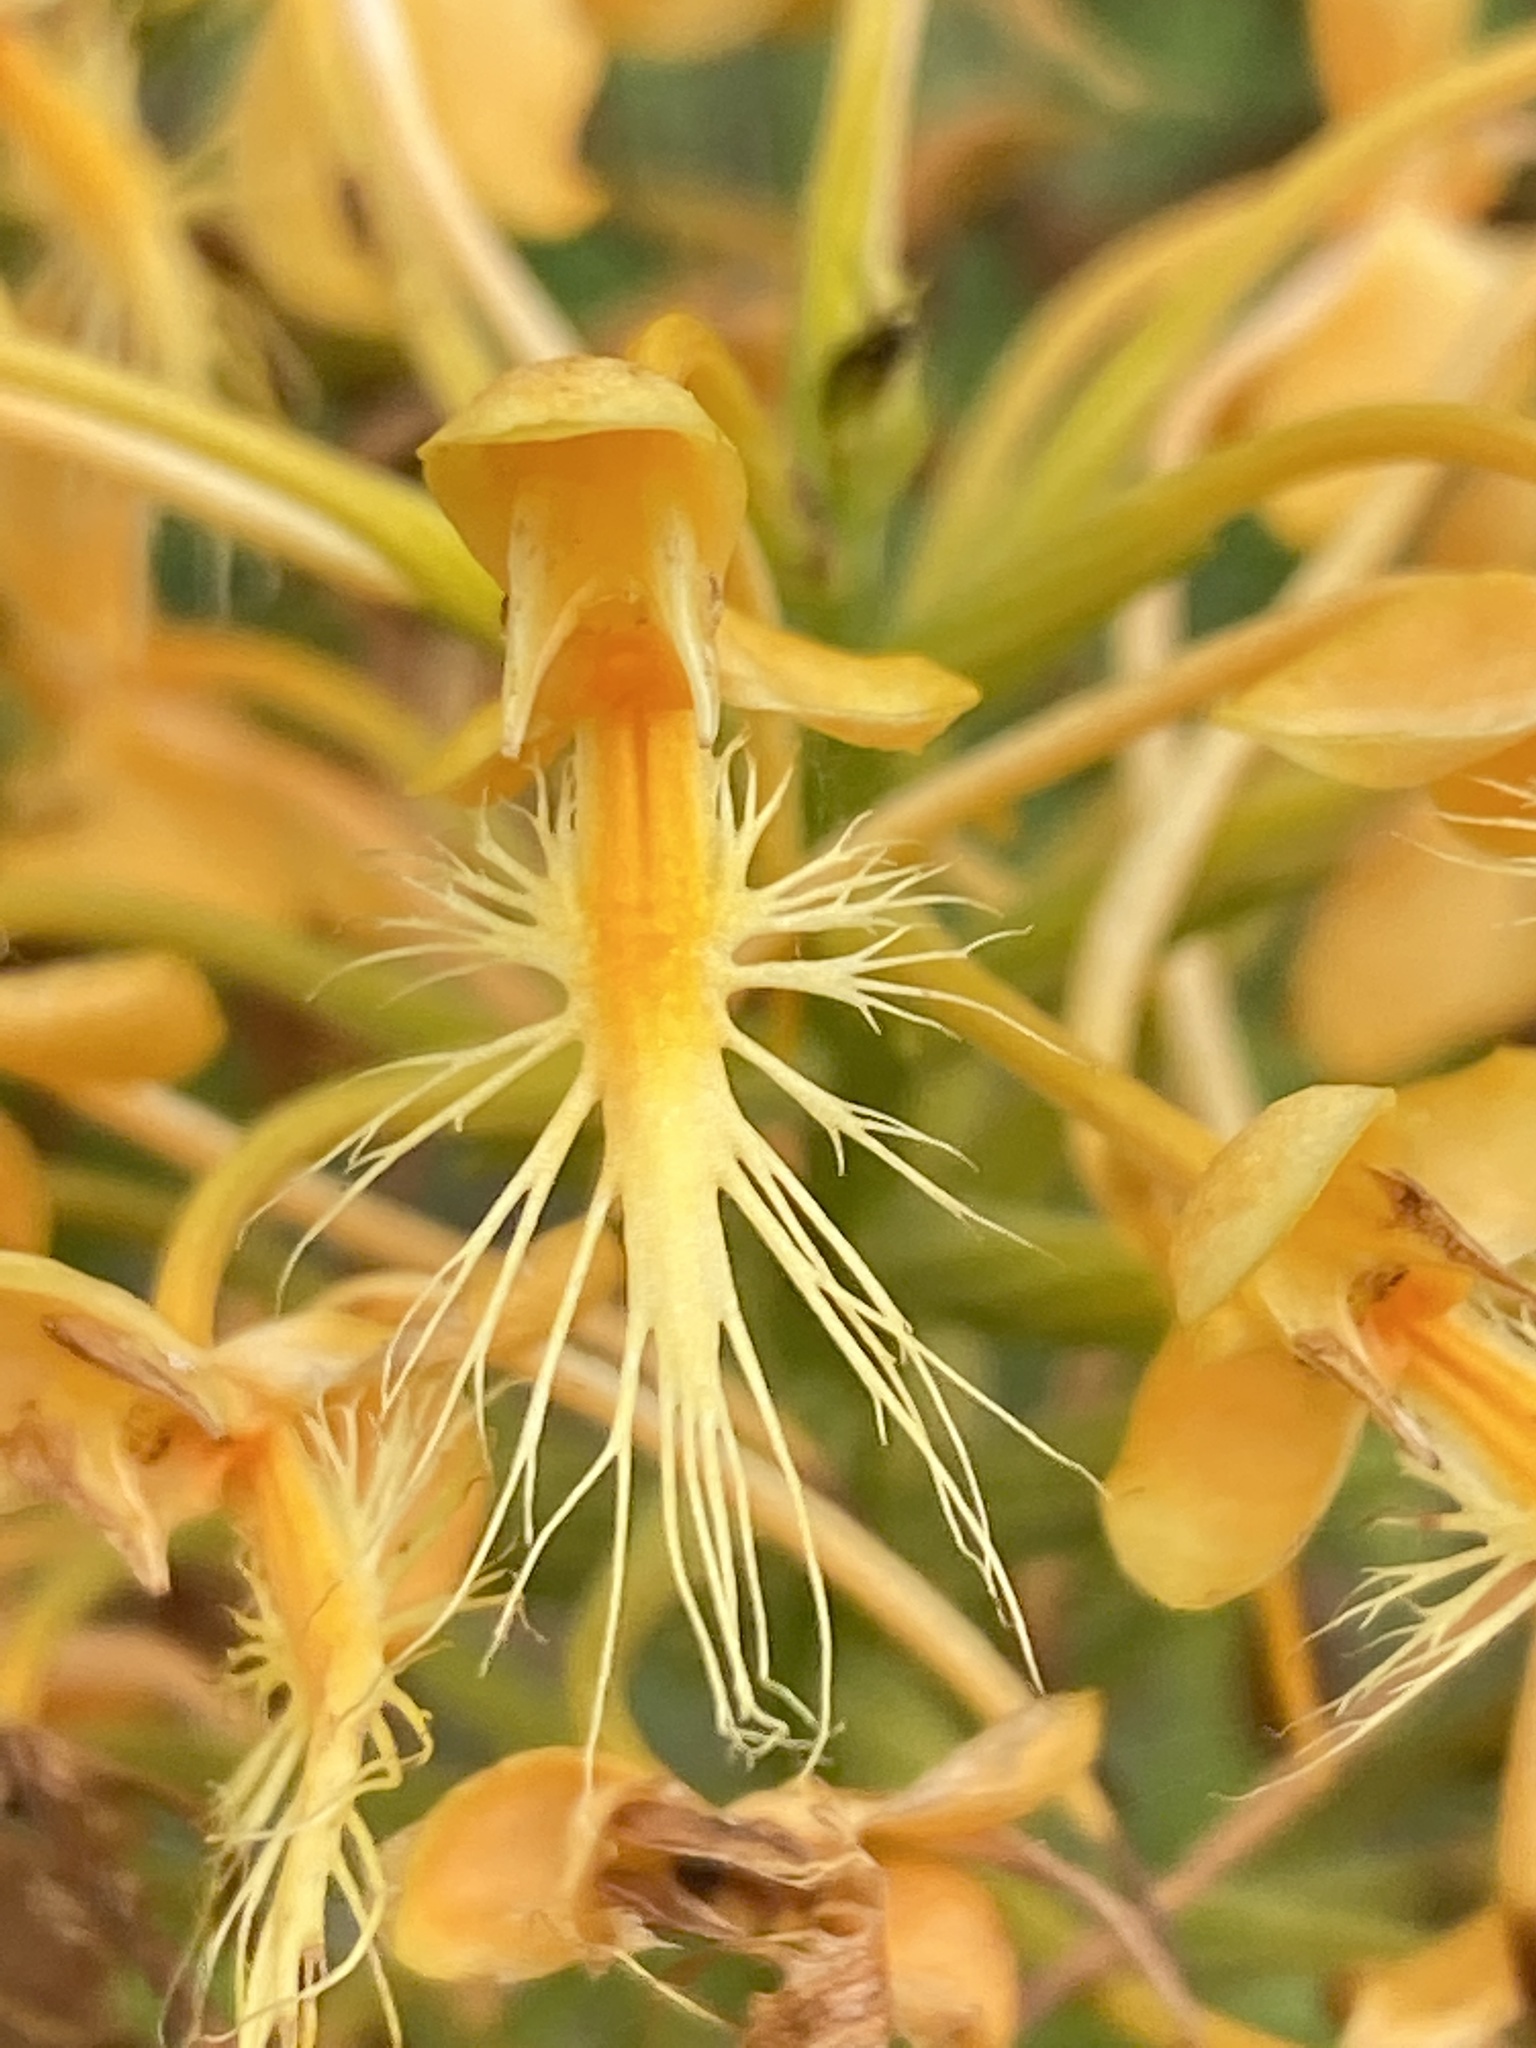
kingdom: Plantae
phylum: Tracheophyta
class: Liliopsida
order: Asparagales
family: Orchidaceae
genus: Platanthera
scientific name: Platanthera ciliaris
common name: Yellow fringed orchid
